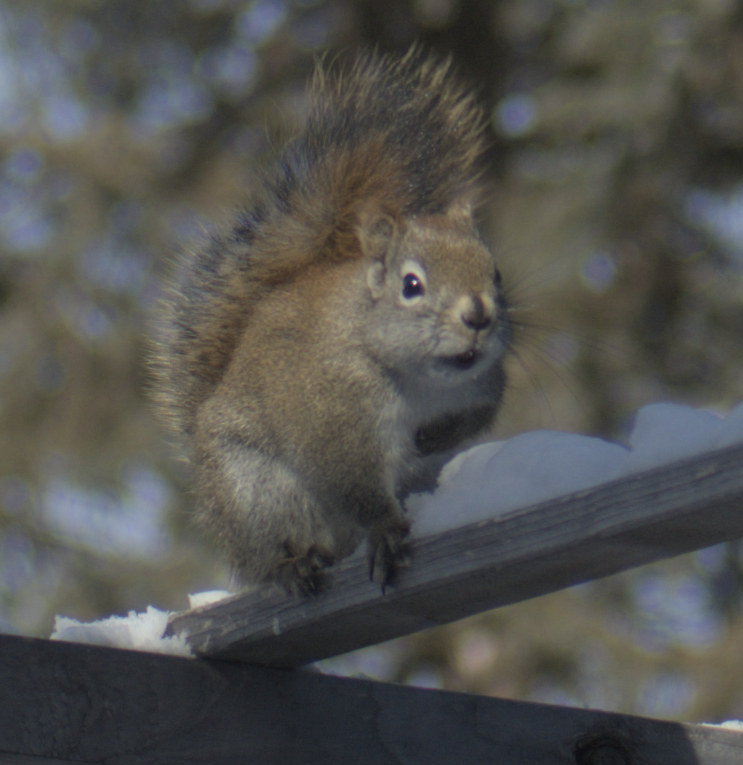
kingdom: Animalia
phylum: Chordata
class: Mammalia
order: Rodentia
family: Sciuridae
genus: Tamiasciurus
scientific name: Tamiasciurus hudsonicus
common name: Red squirrel
